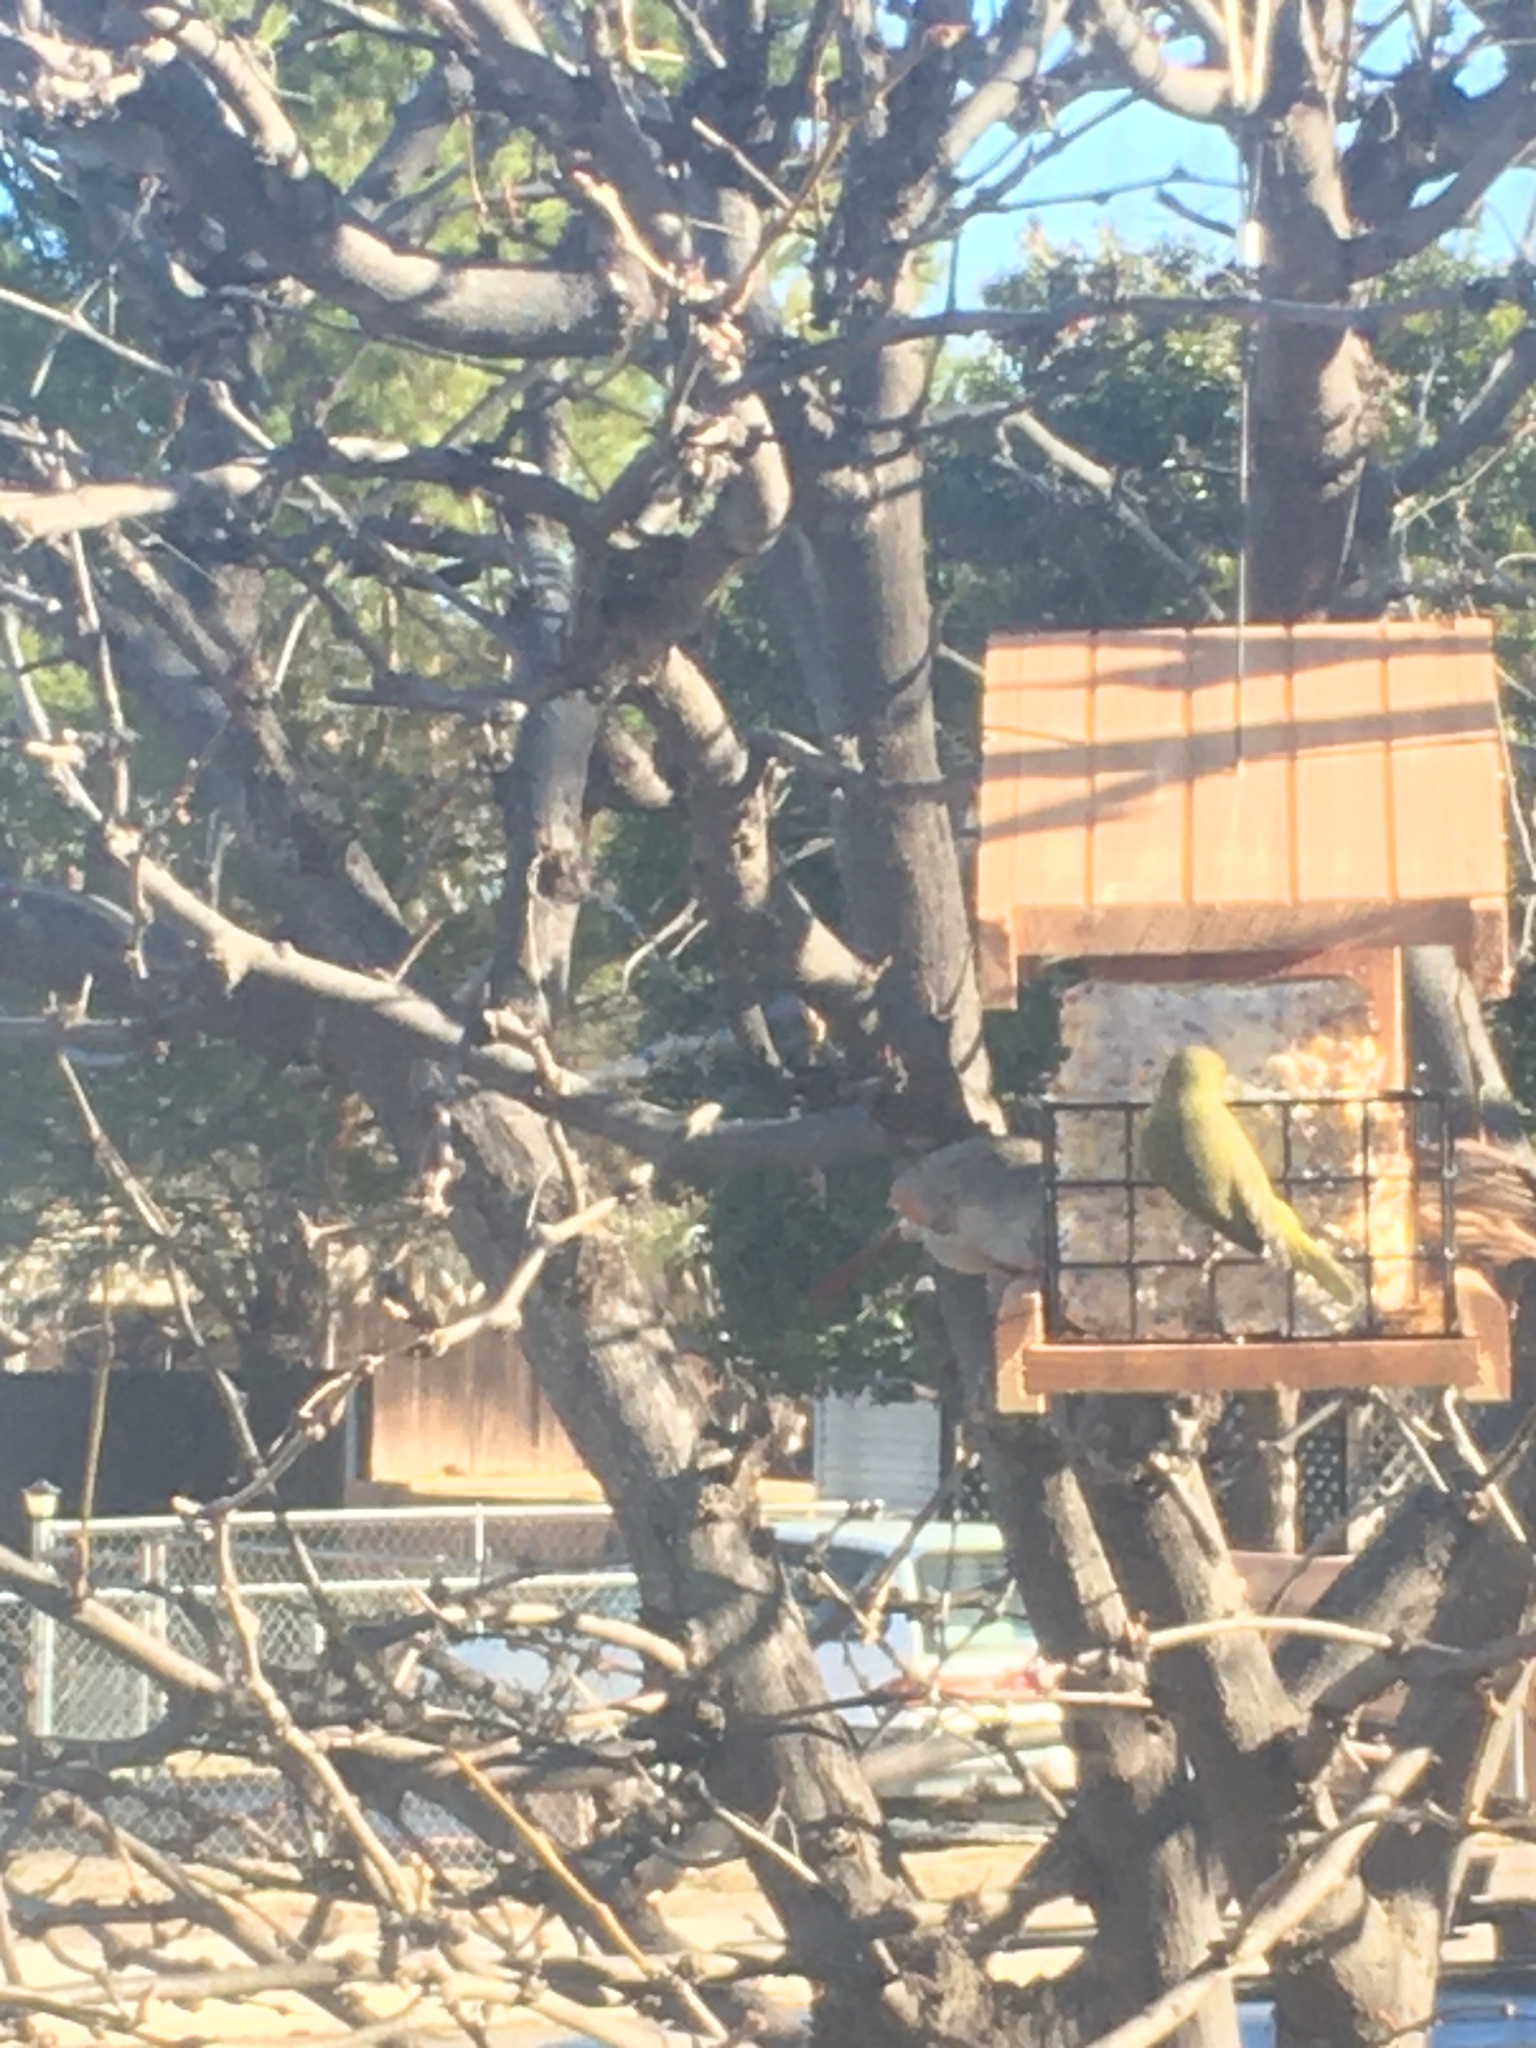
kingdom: Animalia
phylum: Chordata
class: Aves
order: Passeriformes
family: Parulidae
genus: Leiothlypis
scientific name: Leiothlypis celata
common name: Orange-crowned warbler
